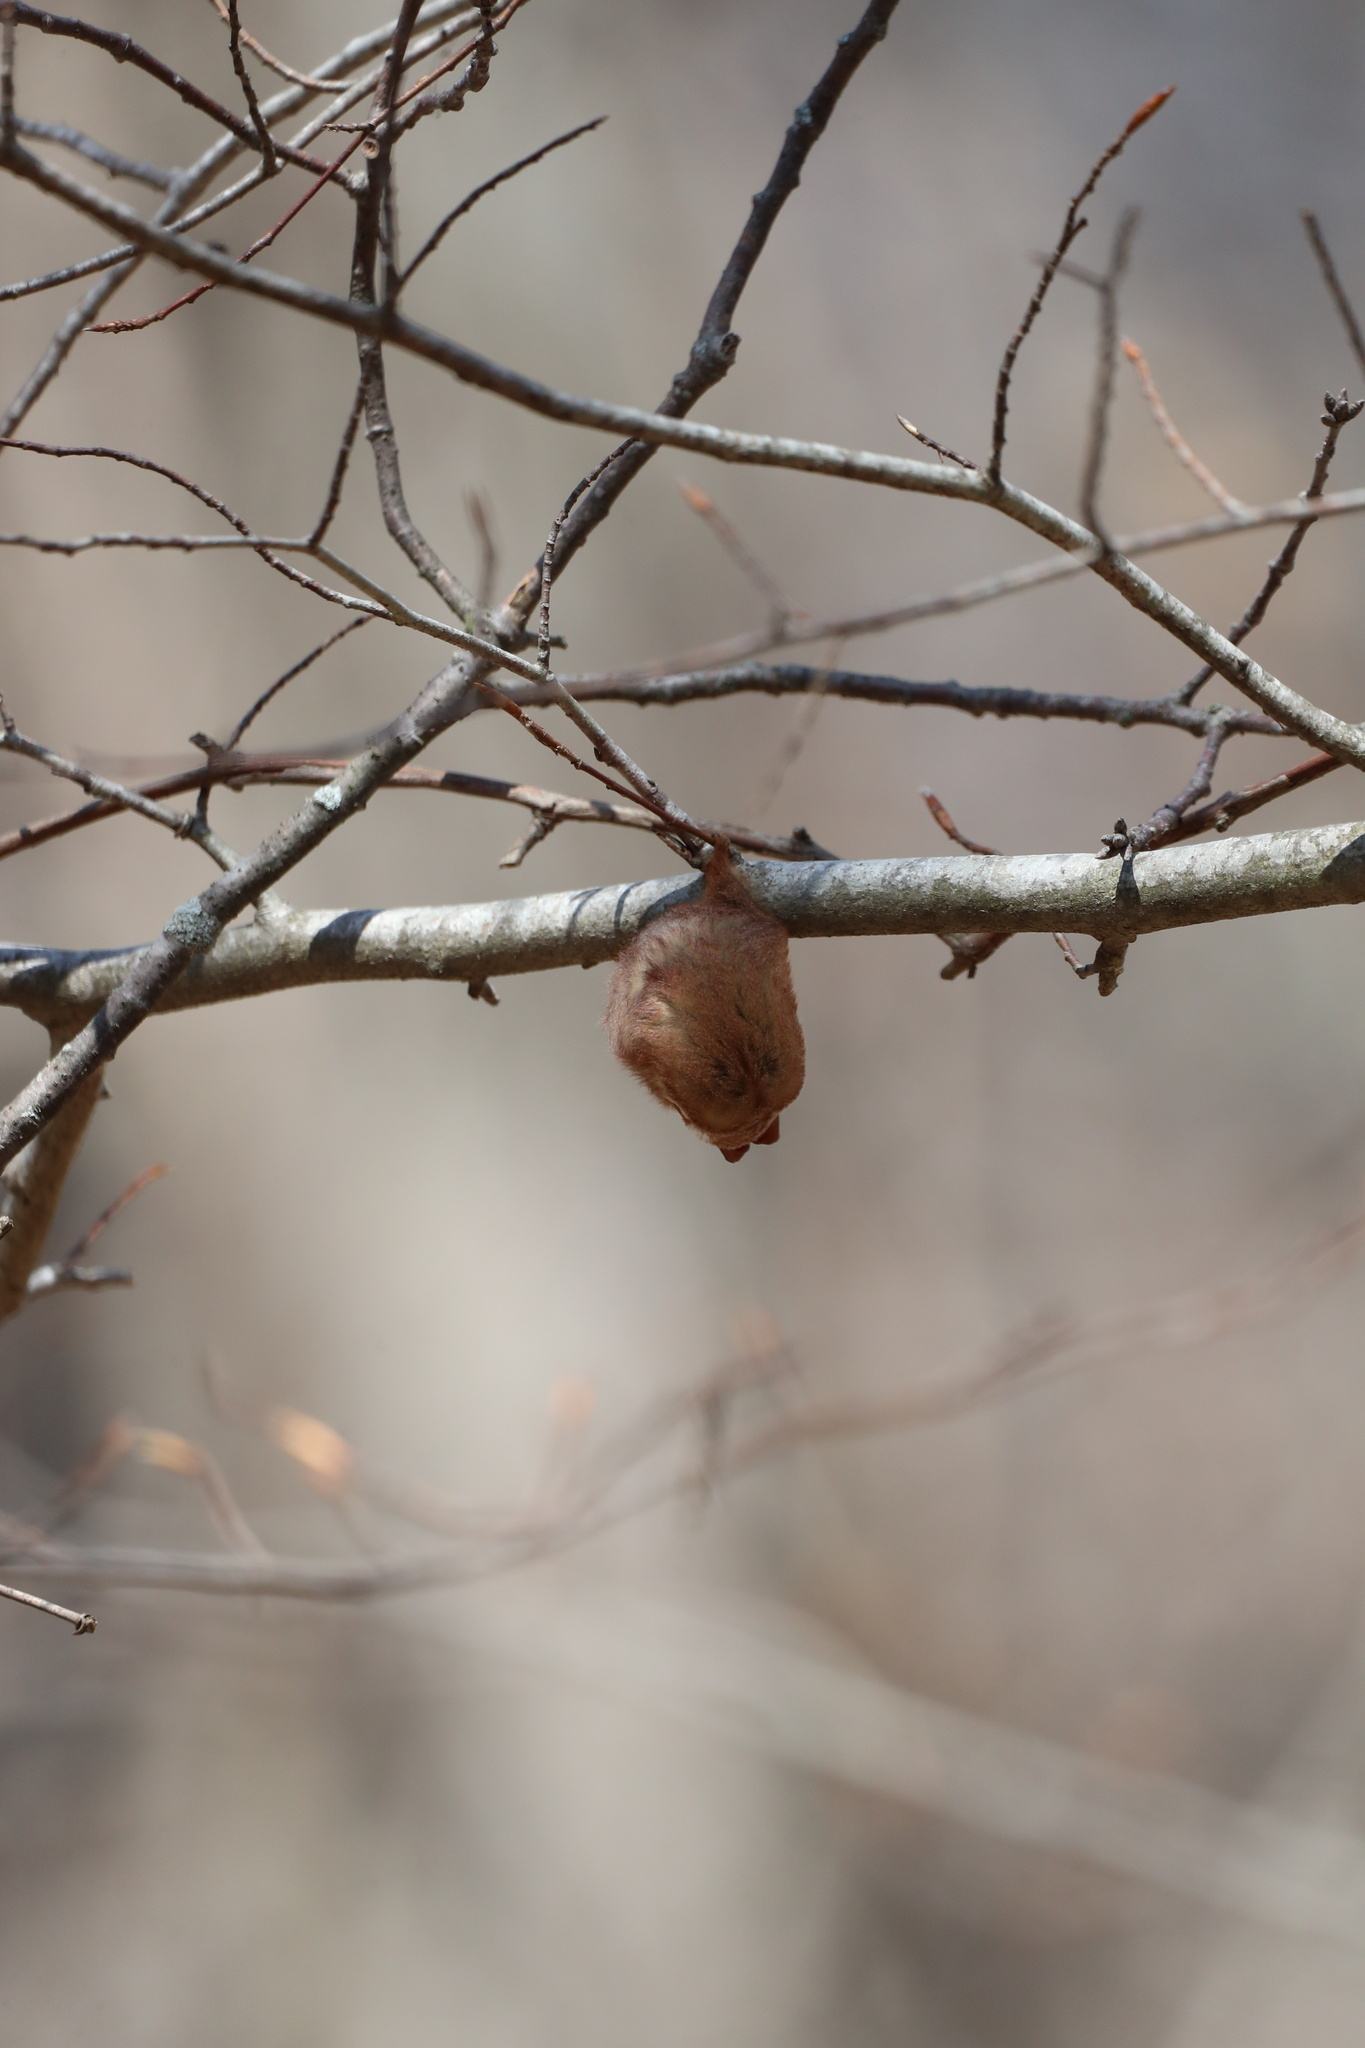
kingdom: Animalia
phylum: Chordata
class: Mammalia
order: Chiroptera
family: Vespertilionidae
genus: Lasiurus
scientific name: Lasiurus borealis
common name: Eastern red bat
